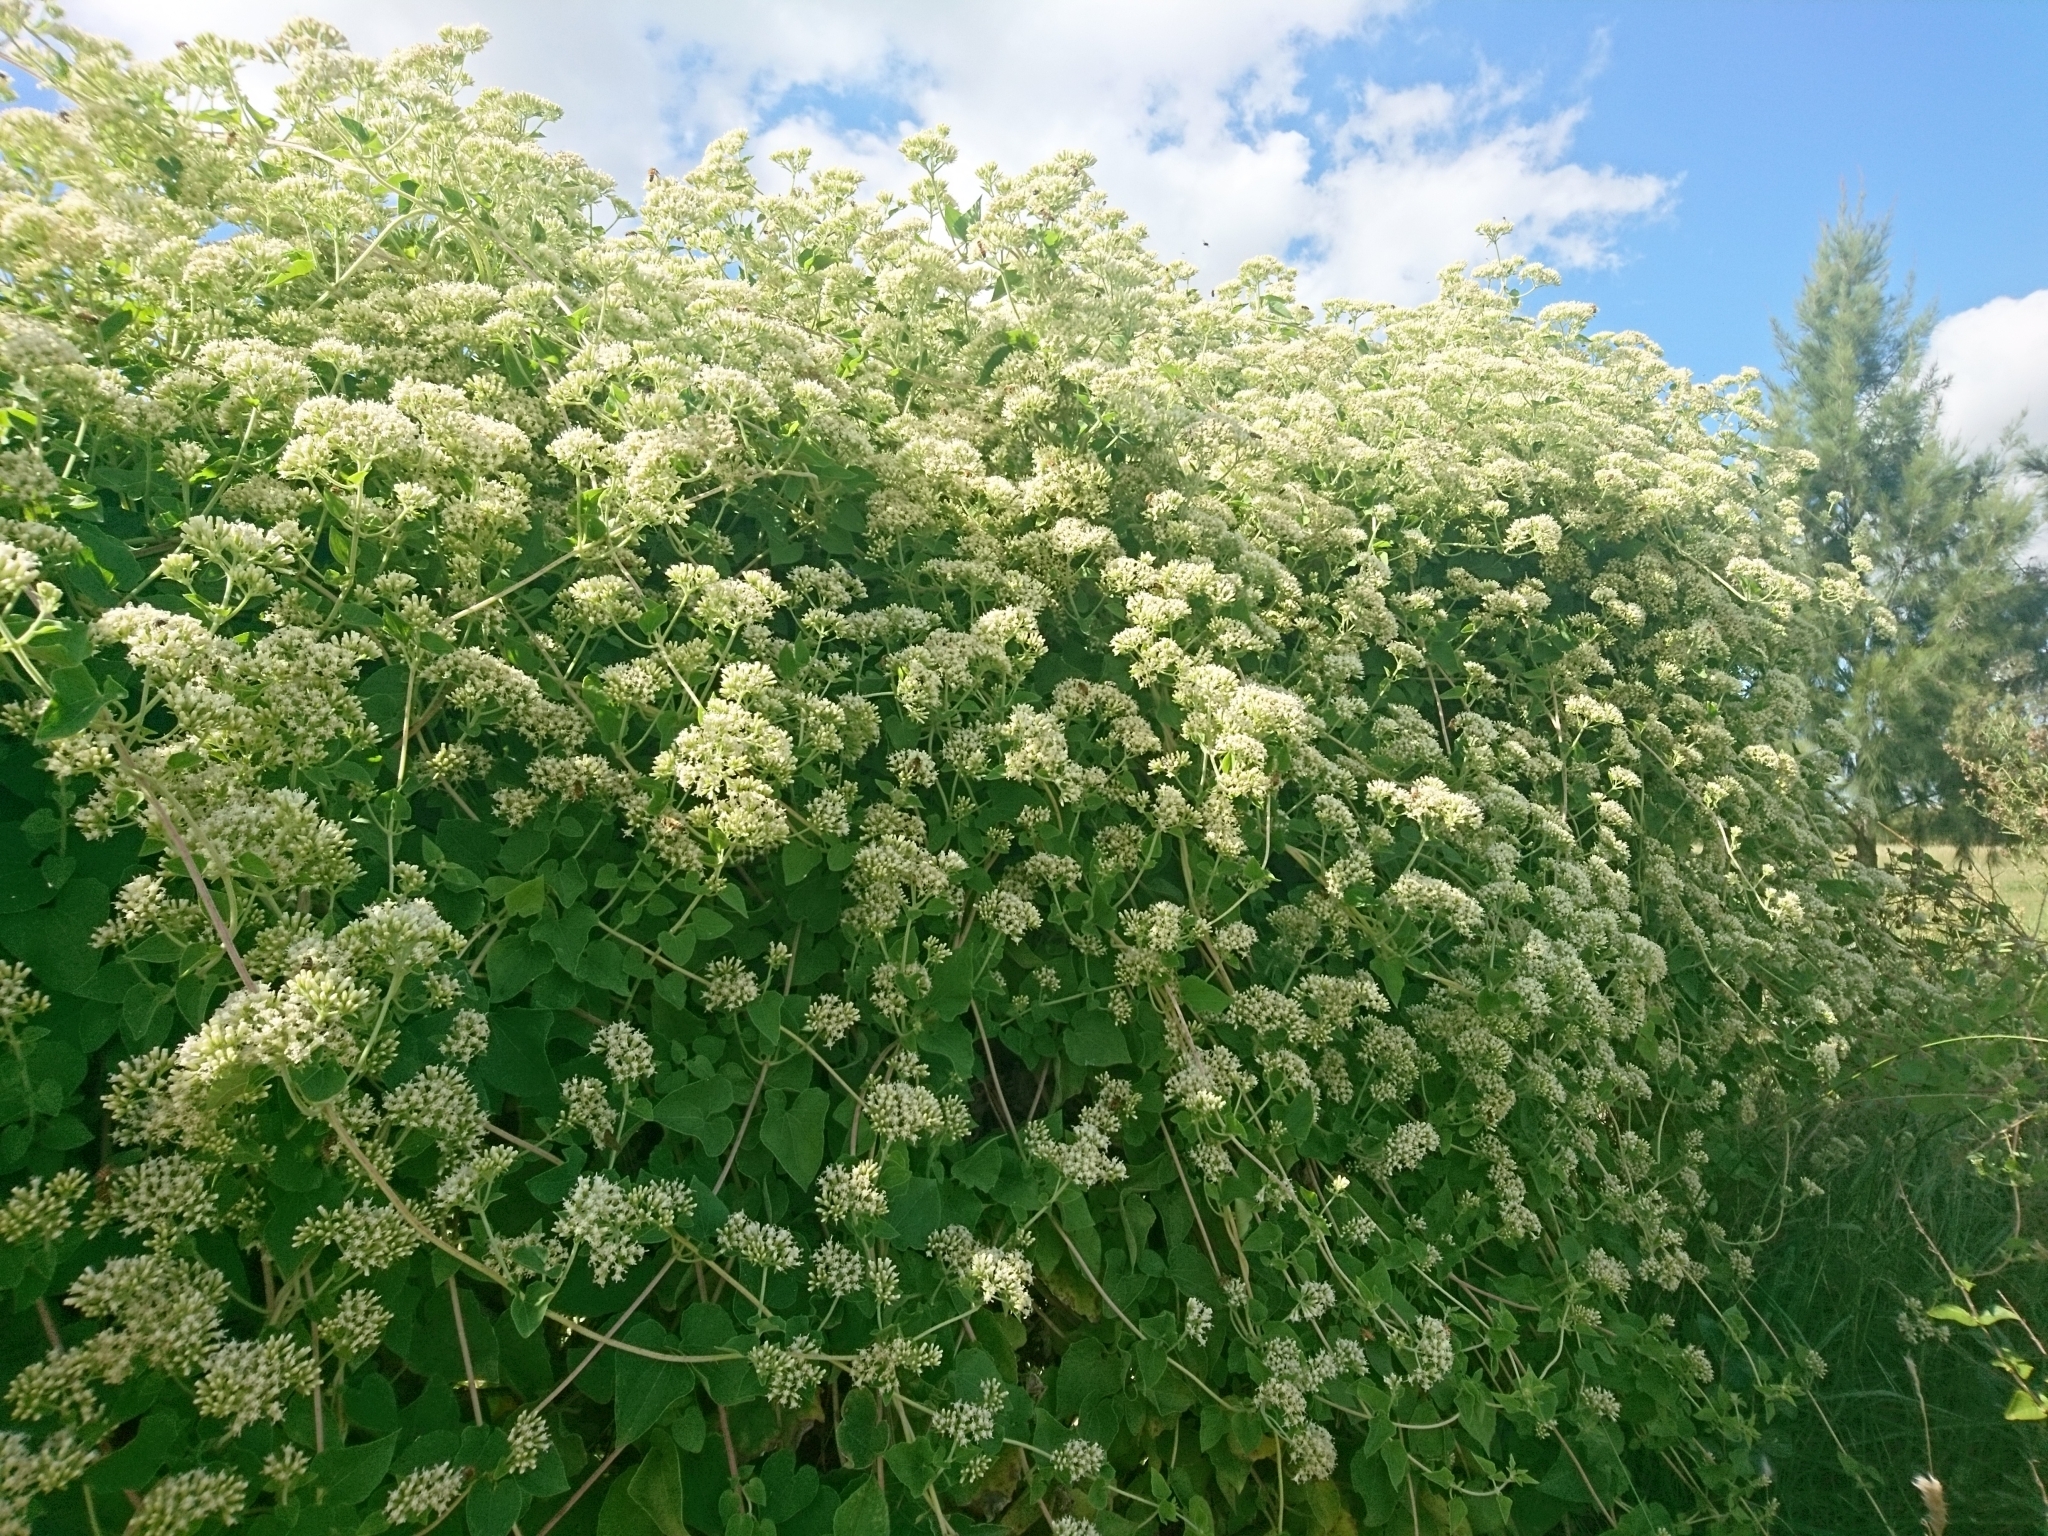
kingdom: Plantae
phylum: Tracheophyta
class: Magnoliopsida
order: Asterales
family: Asteraceae
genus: Mikania
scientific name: Mikania cordifolia
